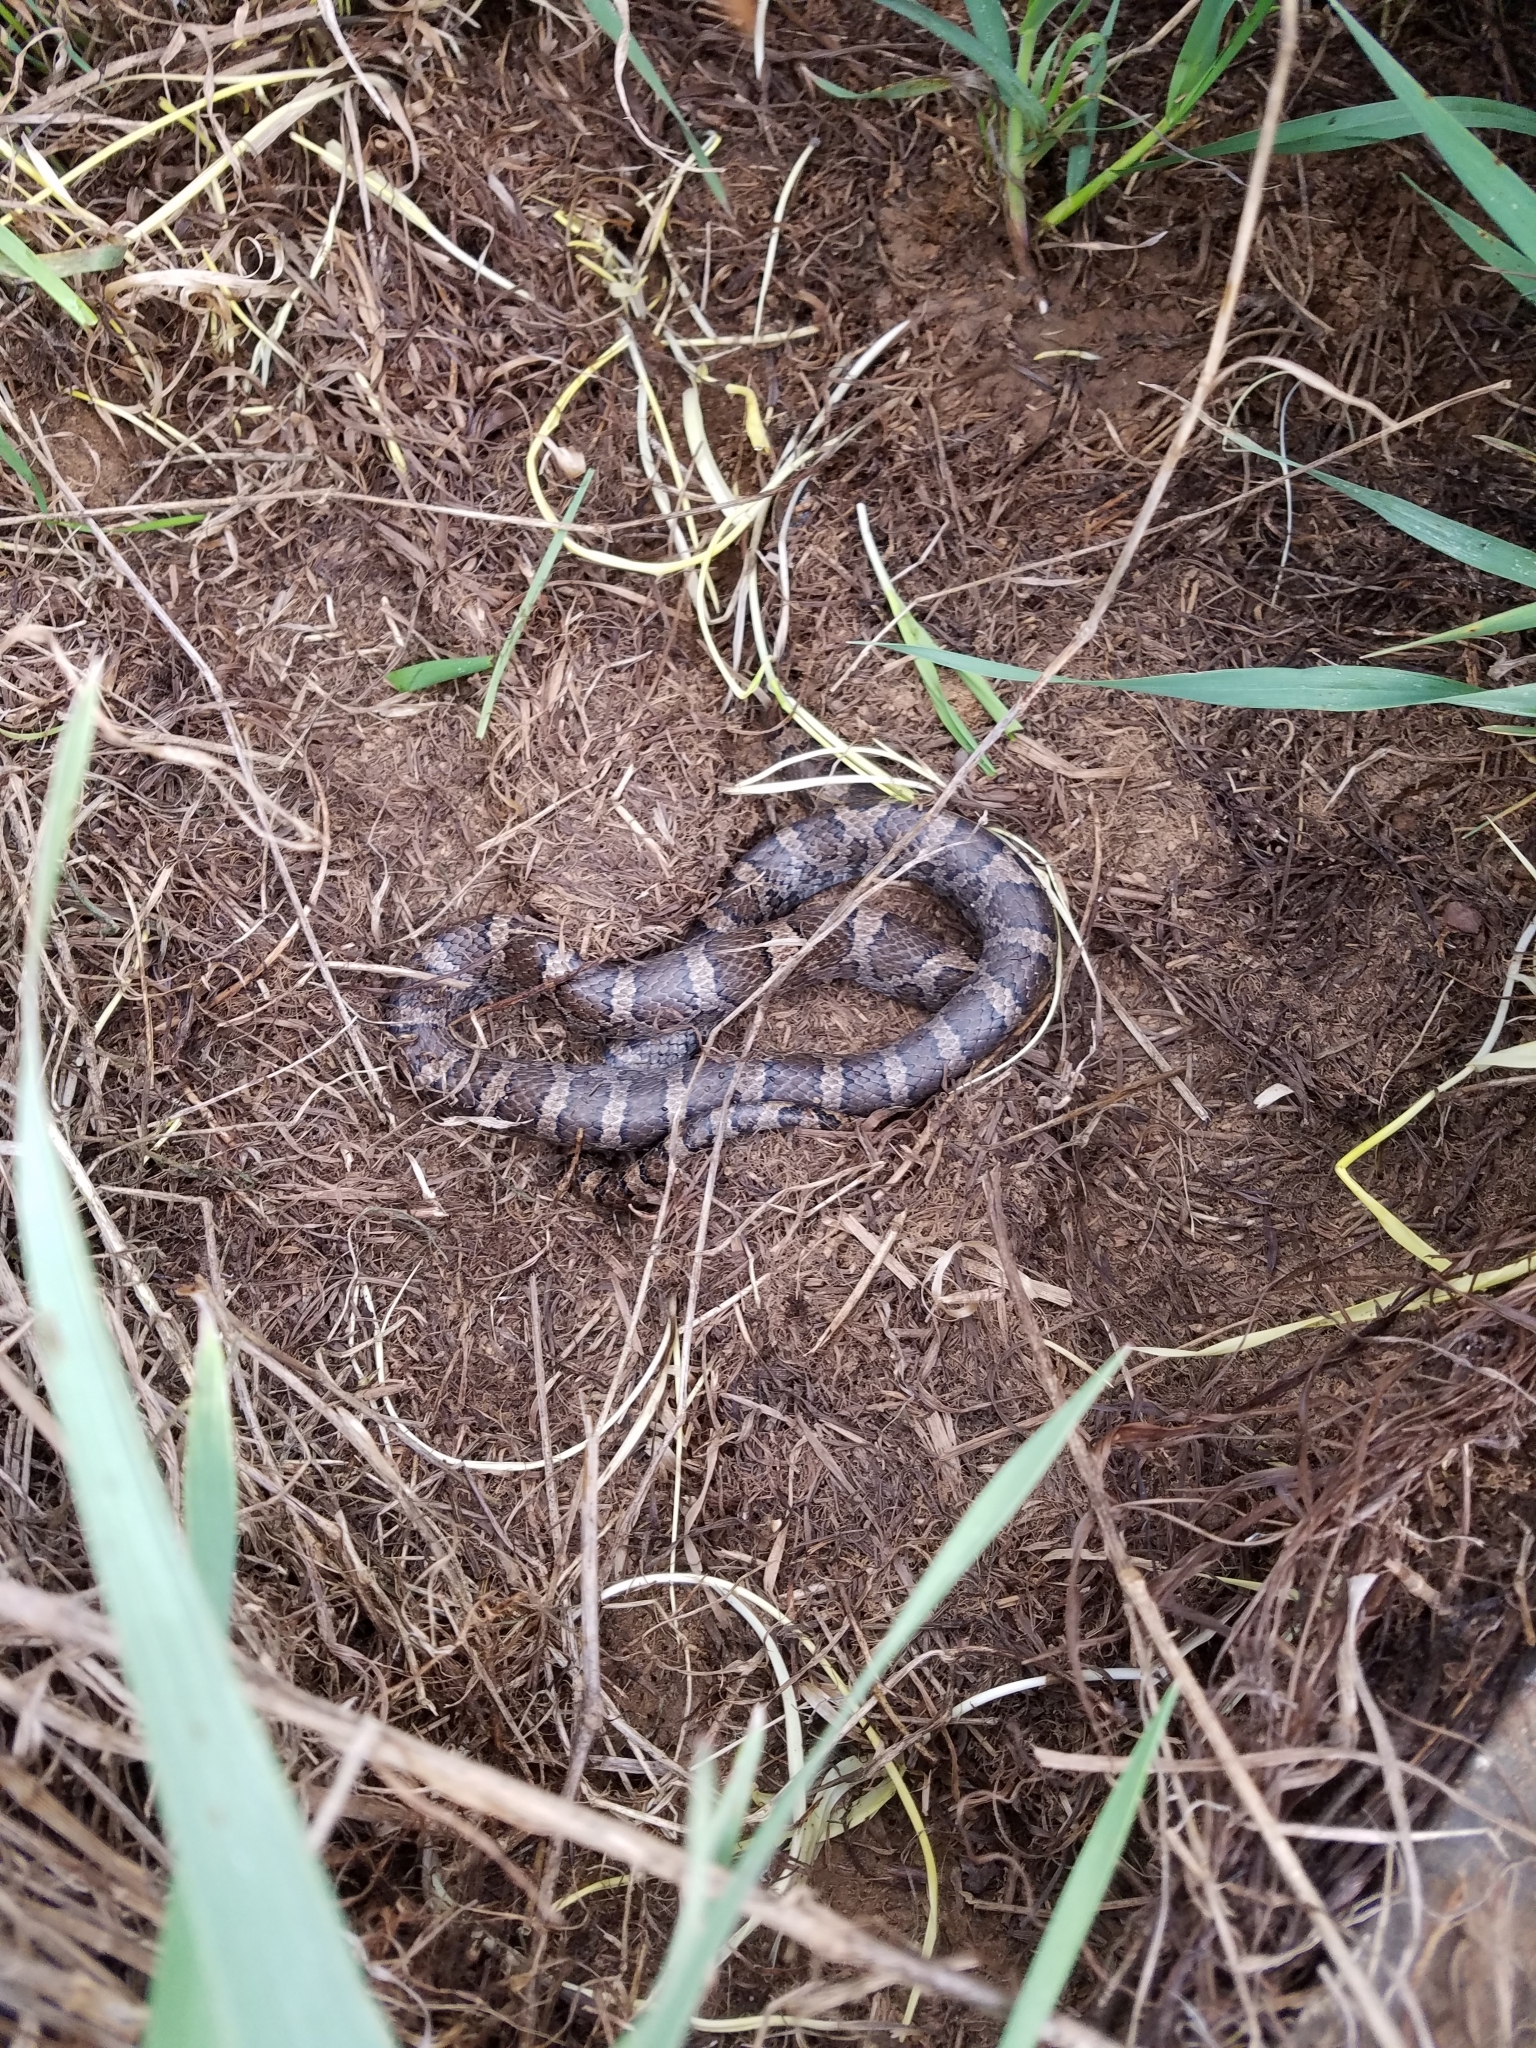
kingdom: Animalia
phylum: Chordata
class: Squamata
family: Colubridae
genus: Lampropeltis
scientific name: Lampropeltis triangulum
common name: Eastern milksnake
